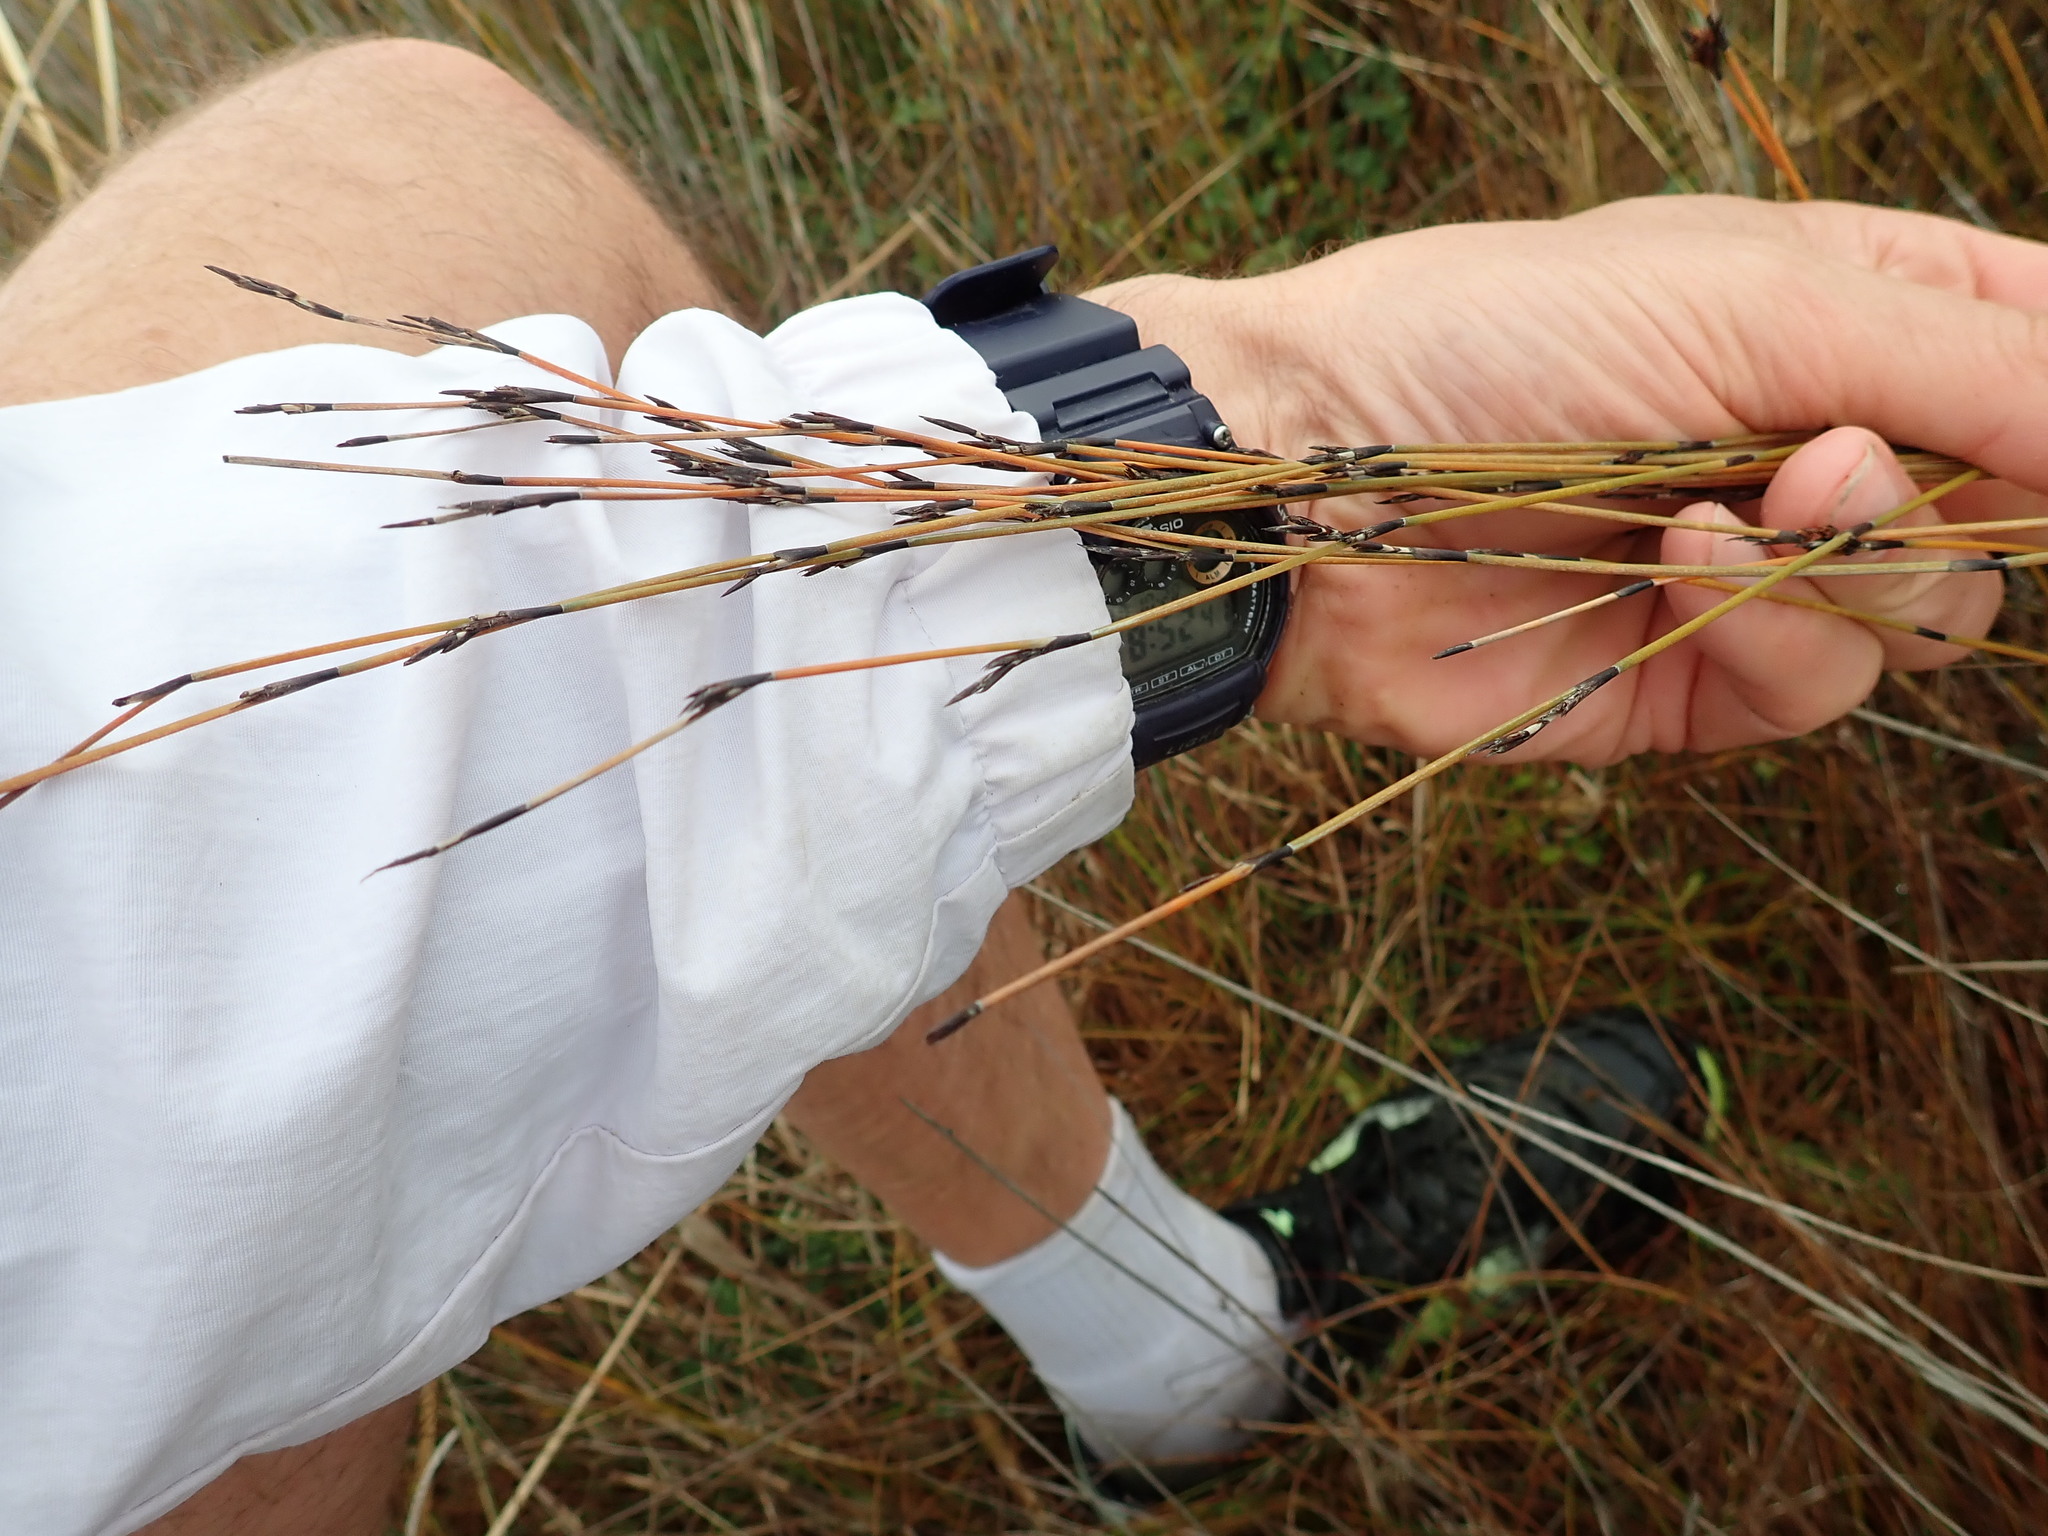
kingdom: Plantae
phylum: Tracheophyta
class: Liliopsida
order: Poales
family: Restionaceae
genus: Apodasmia
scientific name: Apodasmia similis
